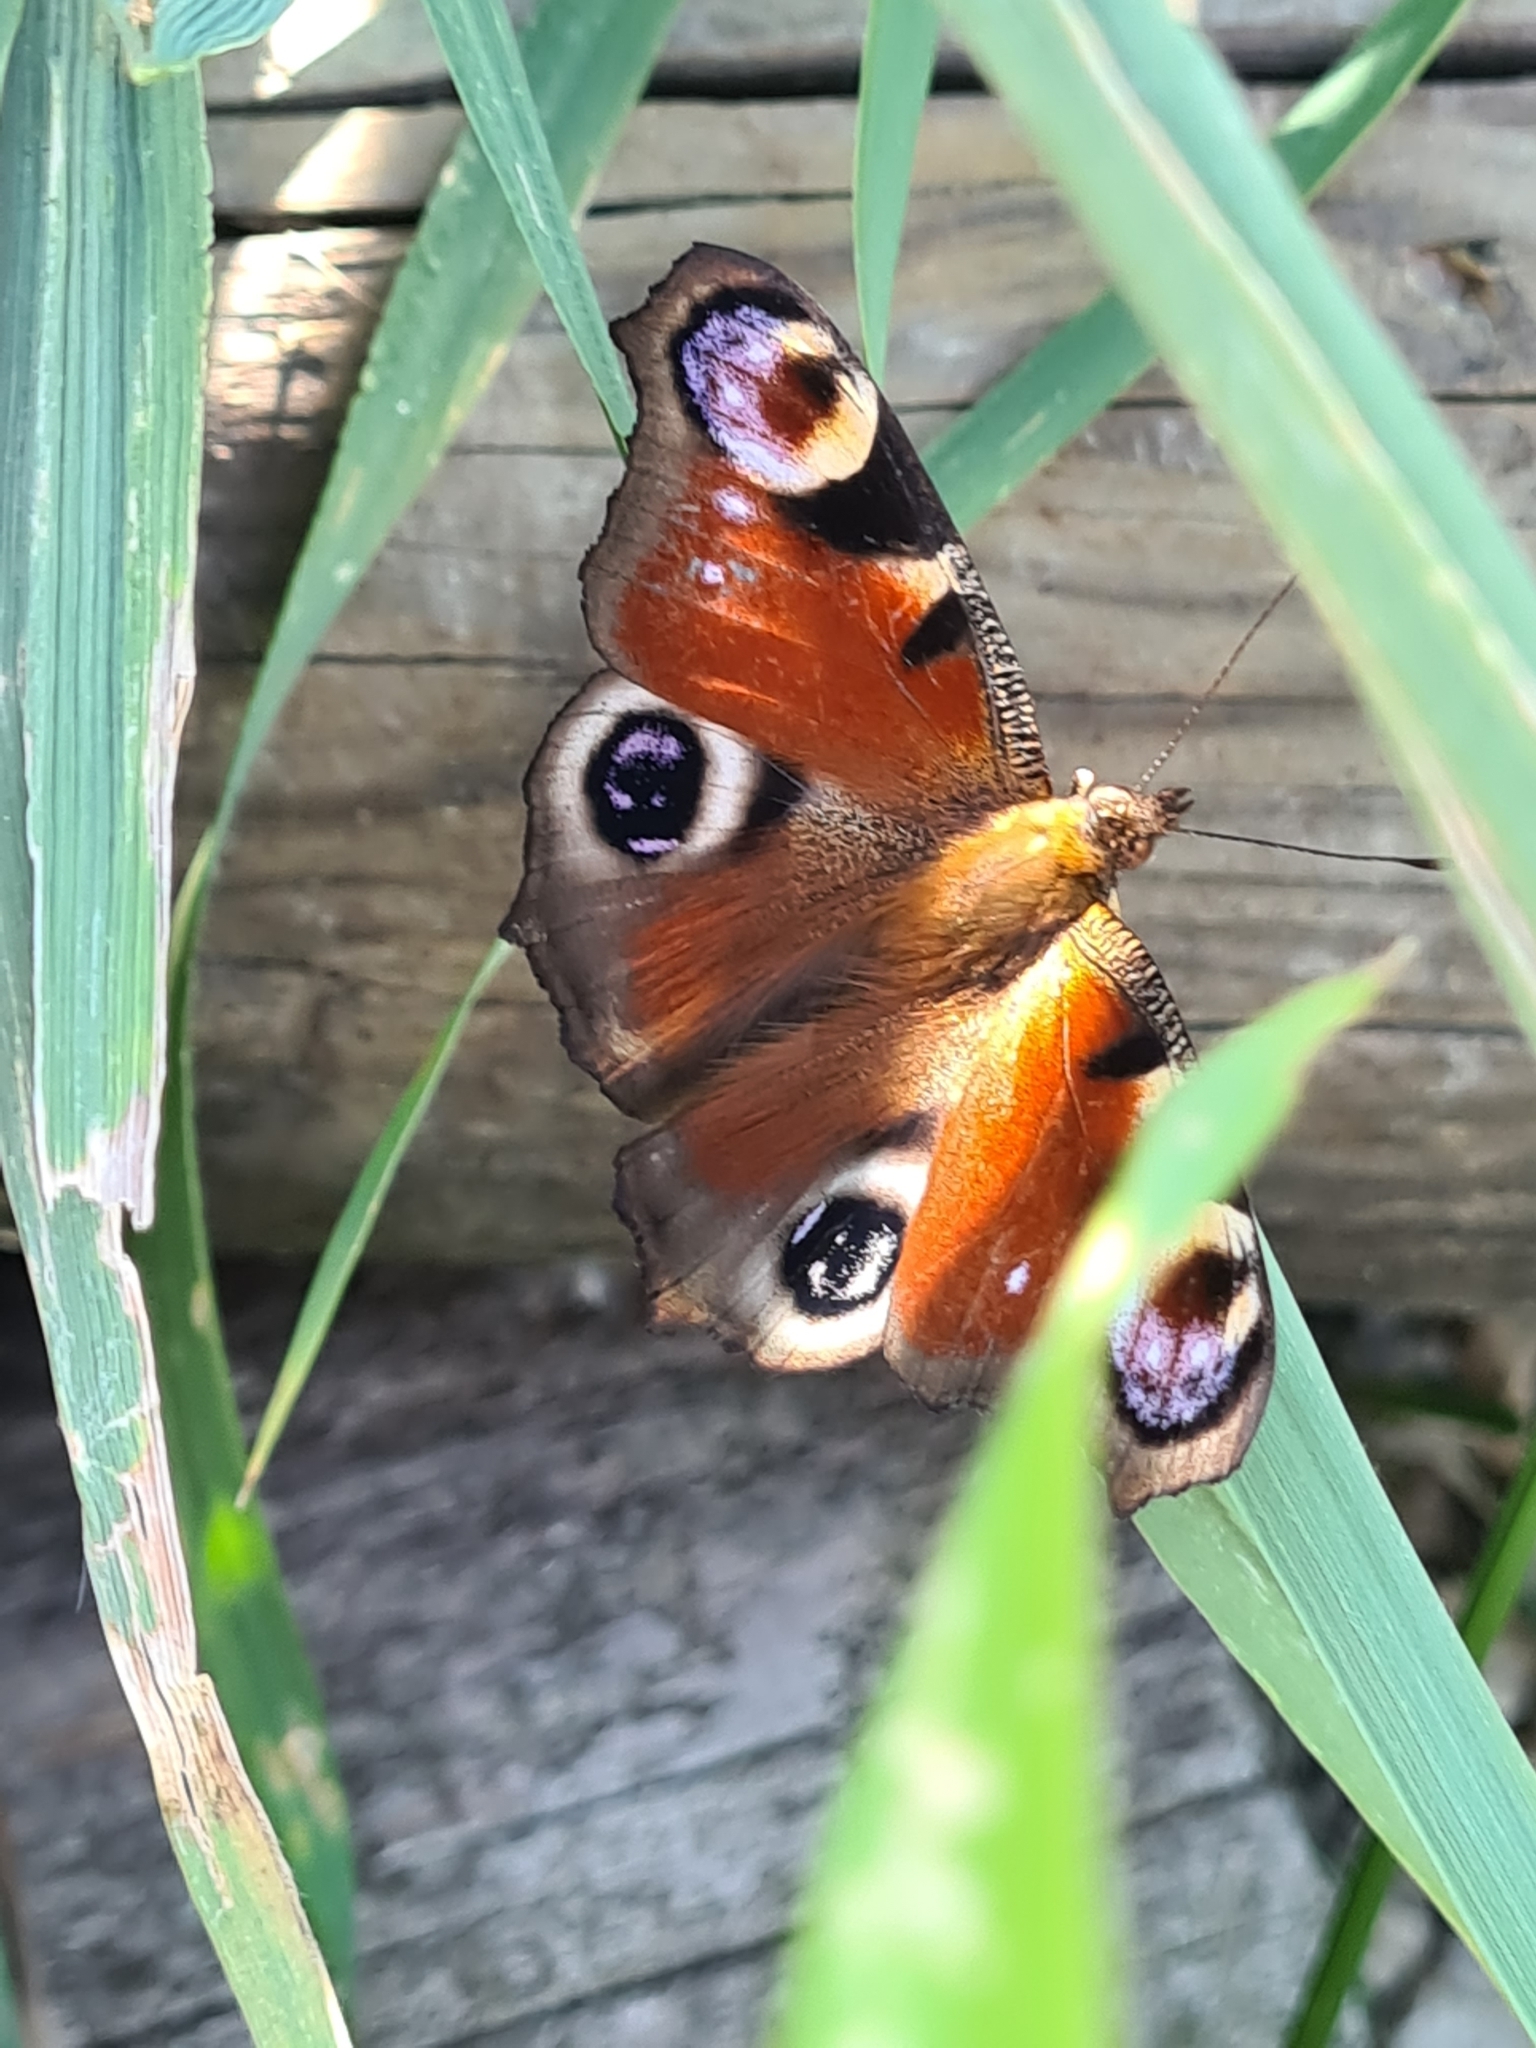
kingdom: Animalia
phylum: Arthropoda
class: Insecta
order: Lepidoptera
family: Nymphalidae
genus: Aglais
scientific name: Aglais io
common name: Peacock
